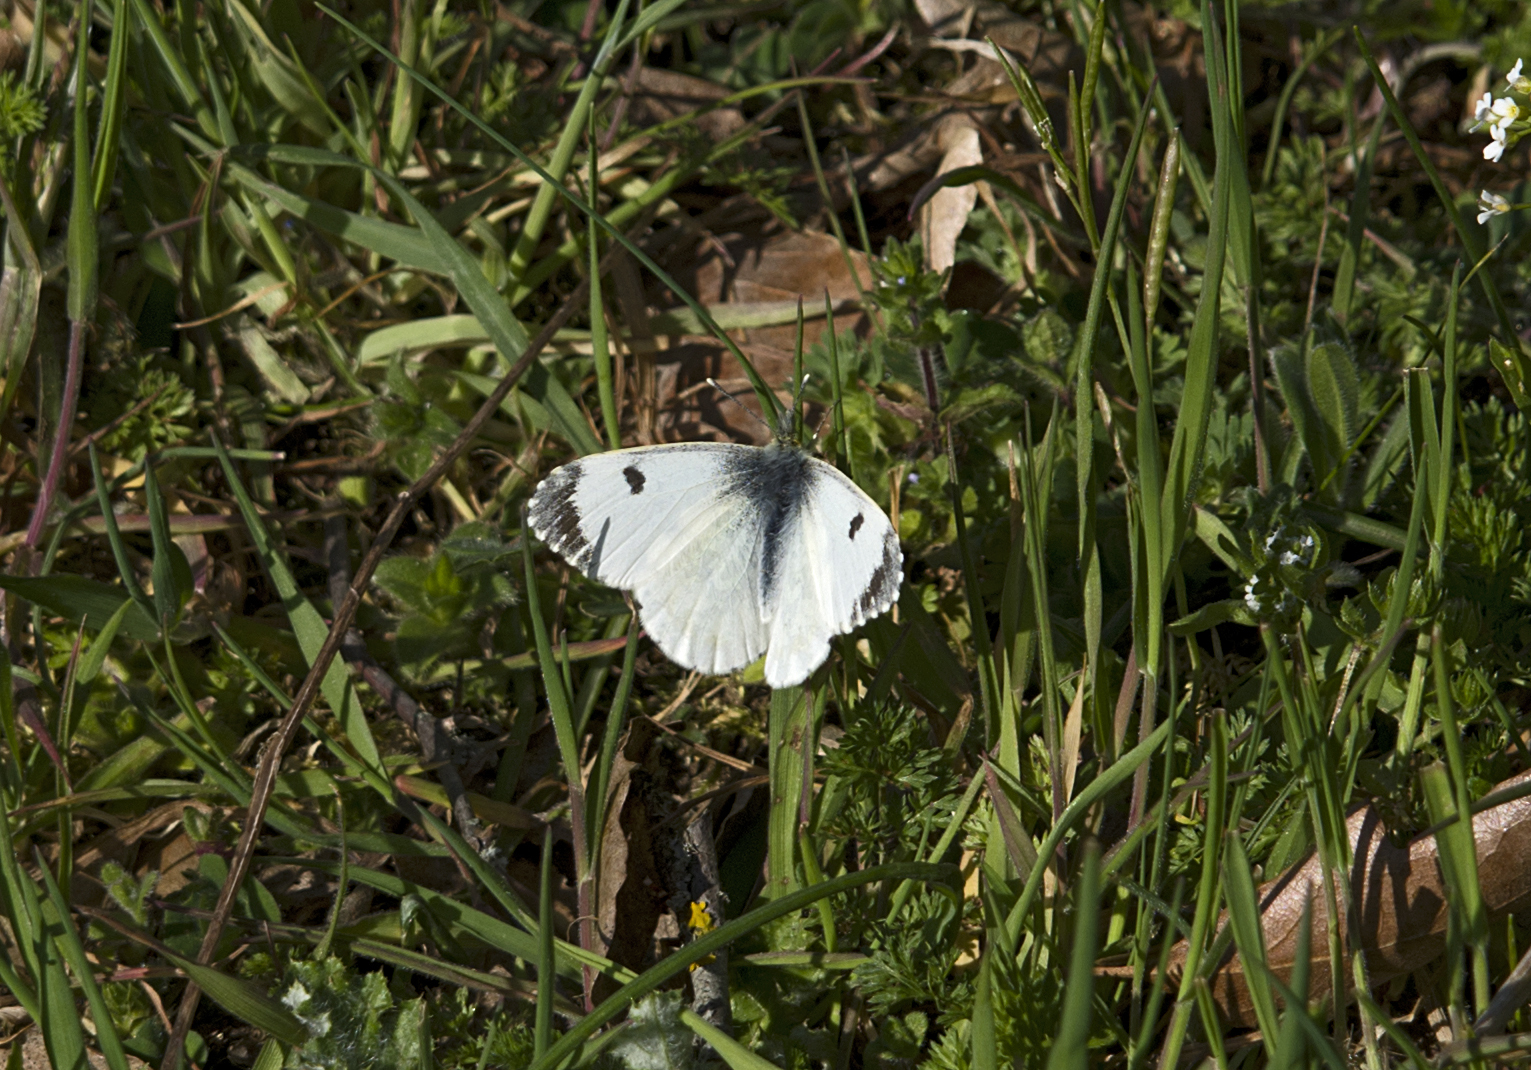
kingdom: Animalia
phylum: Arthropoda
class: Insecta
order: Lepidoptera
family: Pieridae
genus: Anthocharis
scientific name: Anthocharis cardamines
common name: Orange-tip
